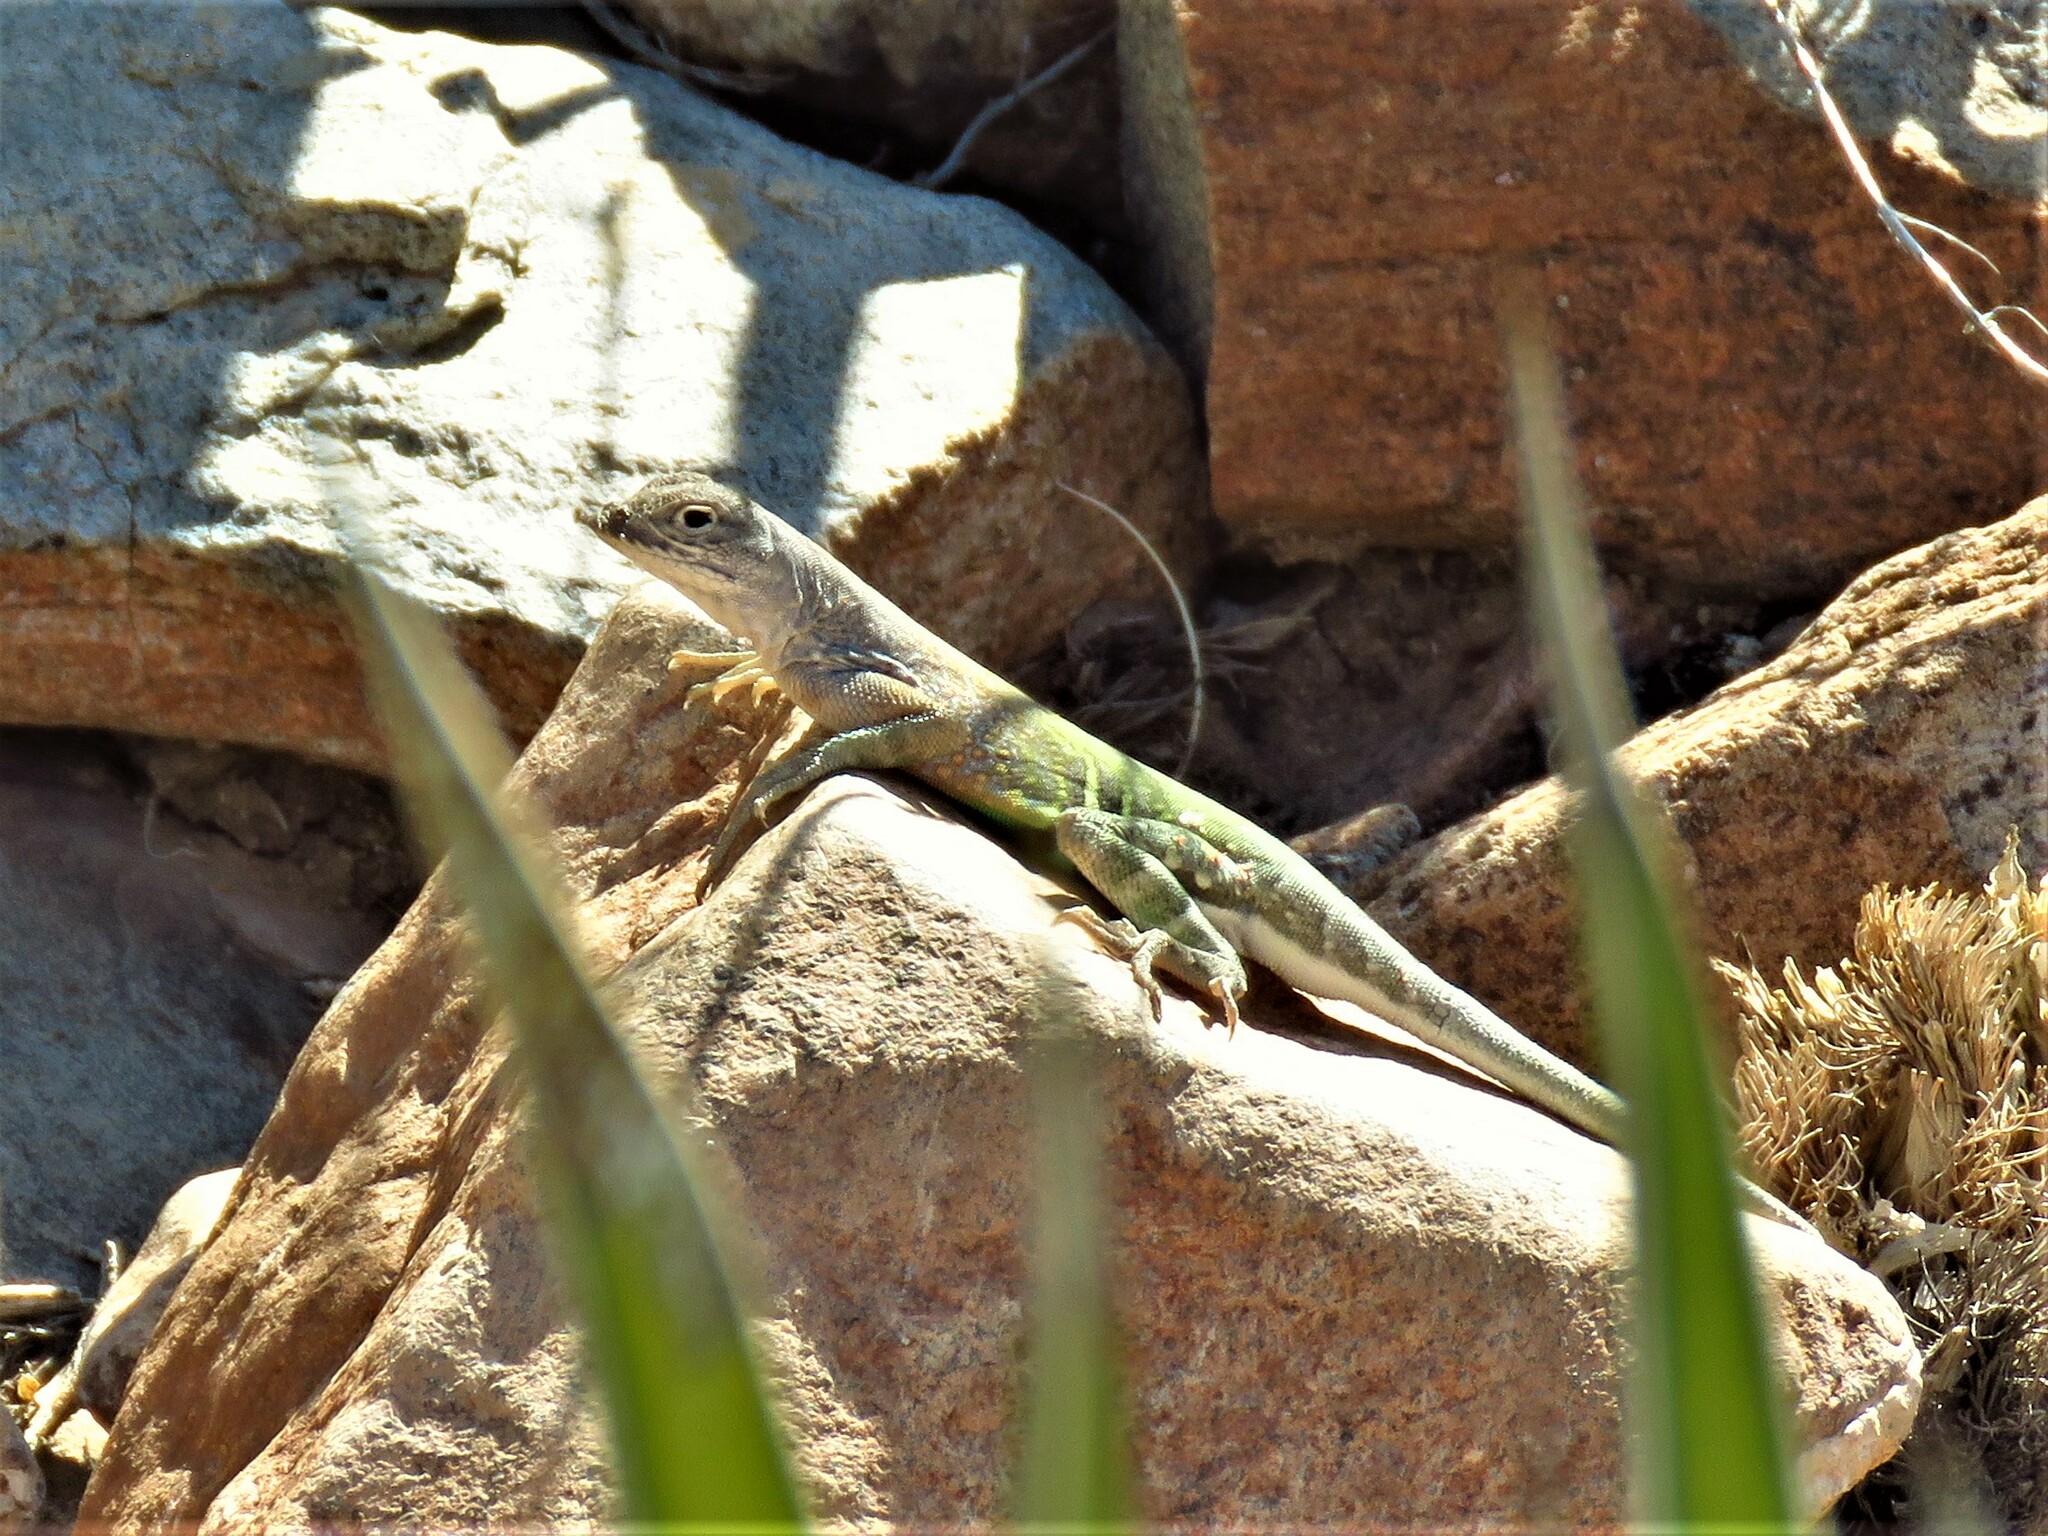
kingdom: Animalia
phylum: Chordata
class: Squamata
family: Phrynosomatidae
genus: Cophosaurus
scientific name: Cophosaurus texanus
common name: Greater earless lizard
